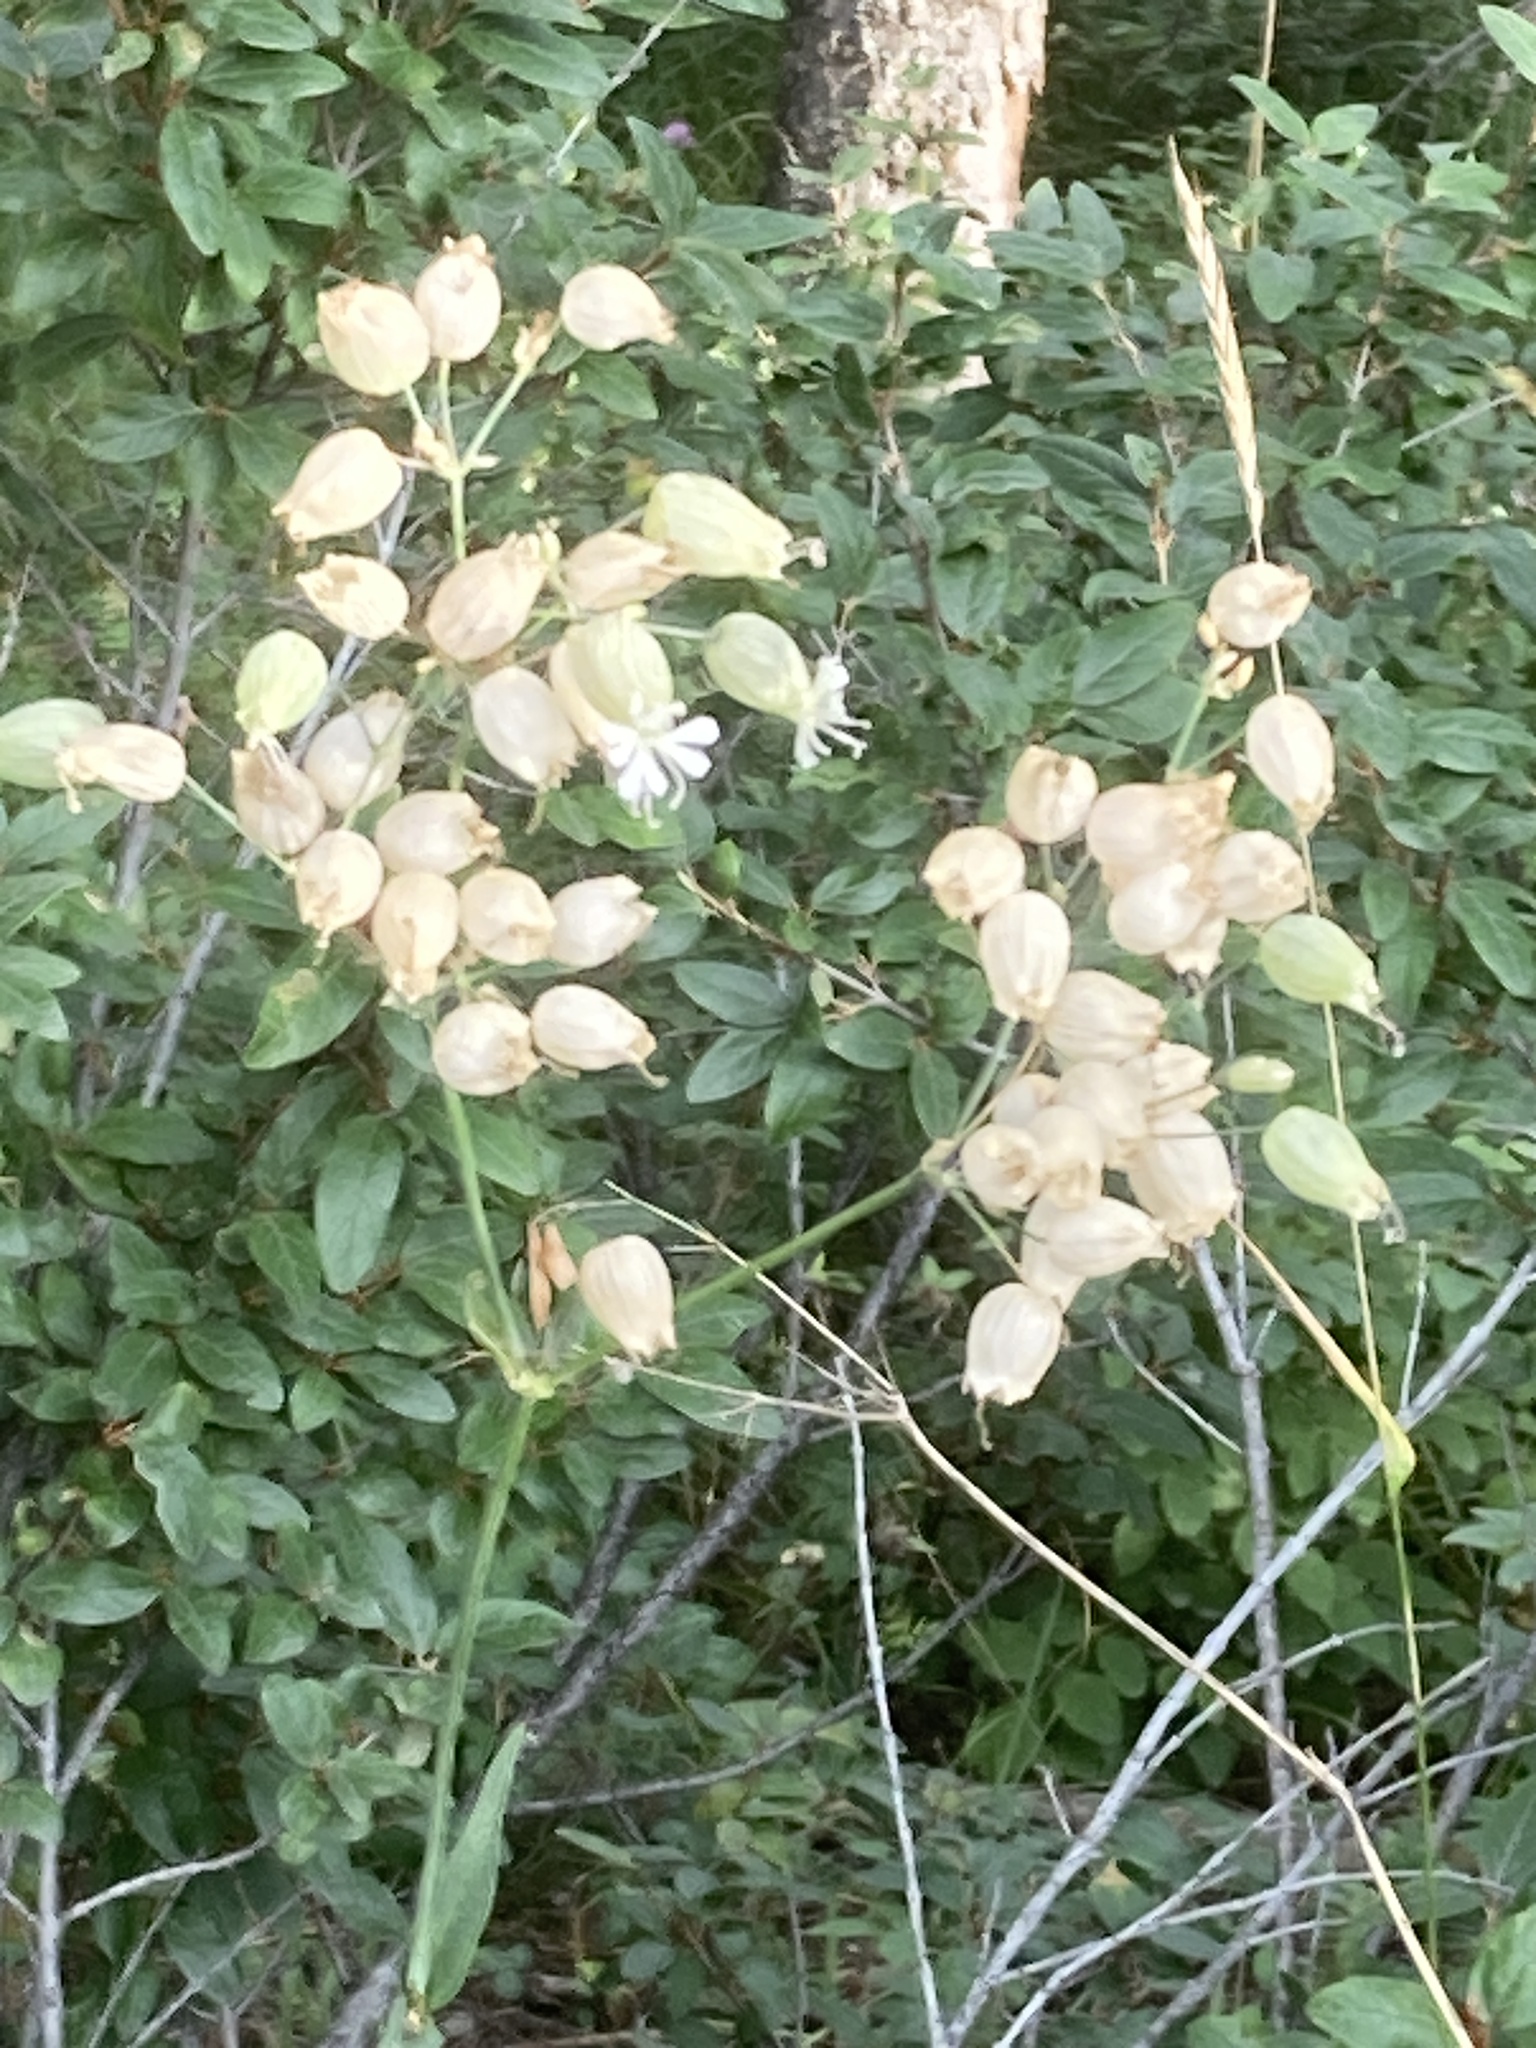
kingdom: Plantae
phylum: Tracheophyta
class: Magnoliopsida
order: Caryophyllales
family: Caryophyllaceae
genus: Silene
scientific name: Silene vulgaris
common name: Bladder campion
